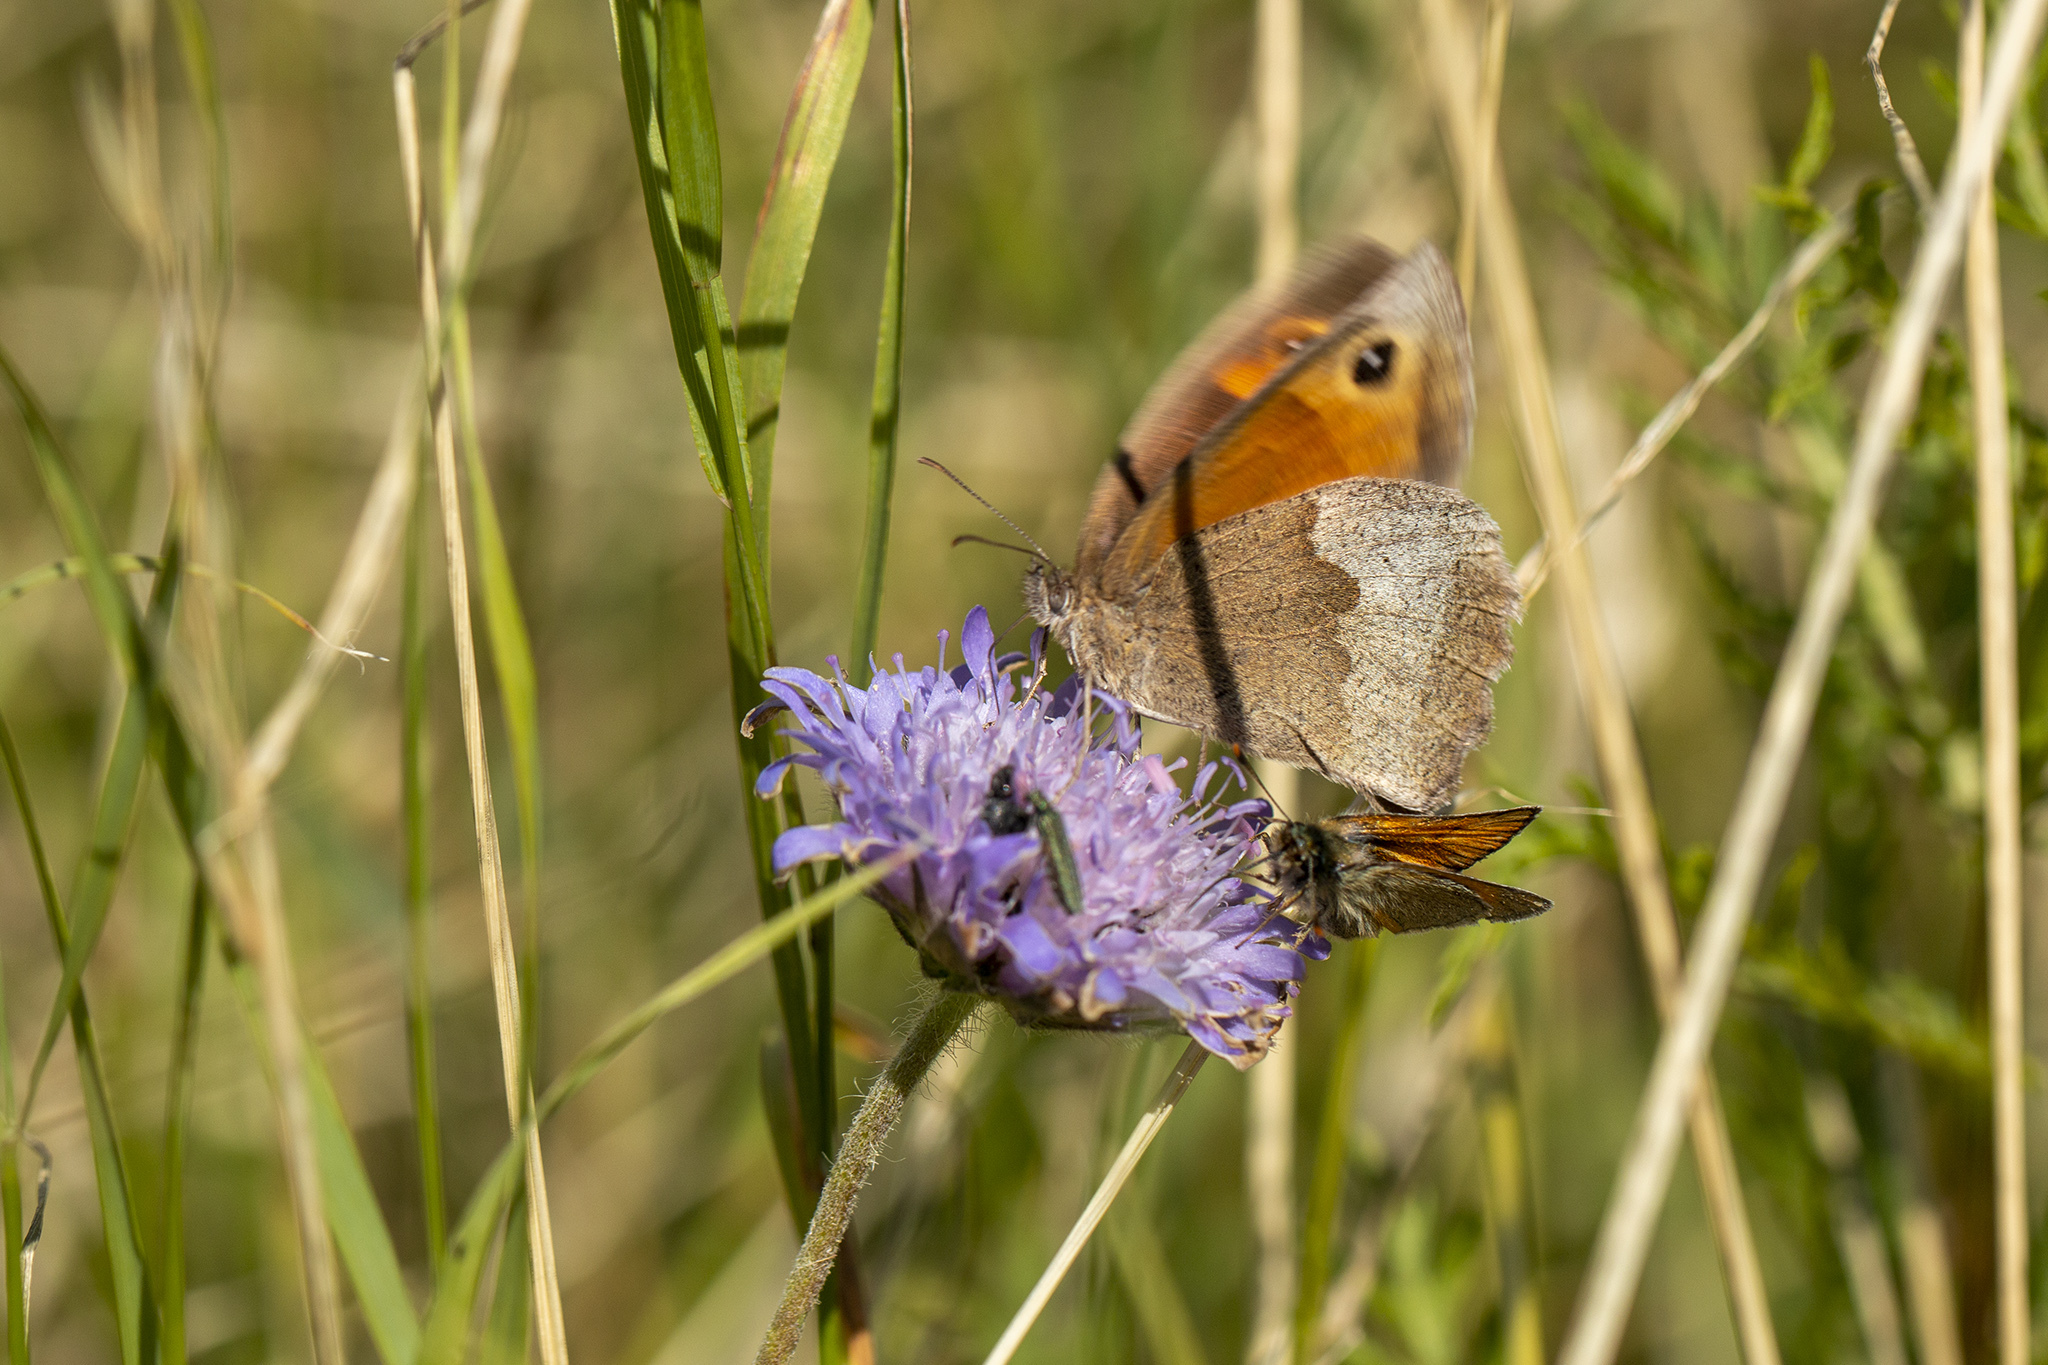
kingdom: Animalia
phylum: Arthropoda
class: Insecta
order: Lepidoptera
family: Nymphalidae
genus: Maniola
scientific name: Maniola jurtina
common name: Meadow brown
